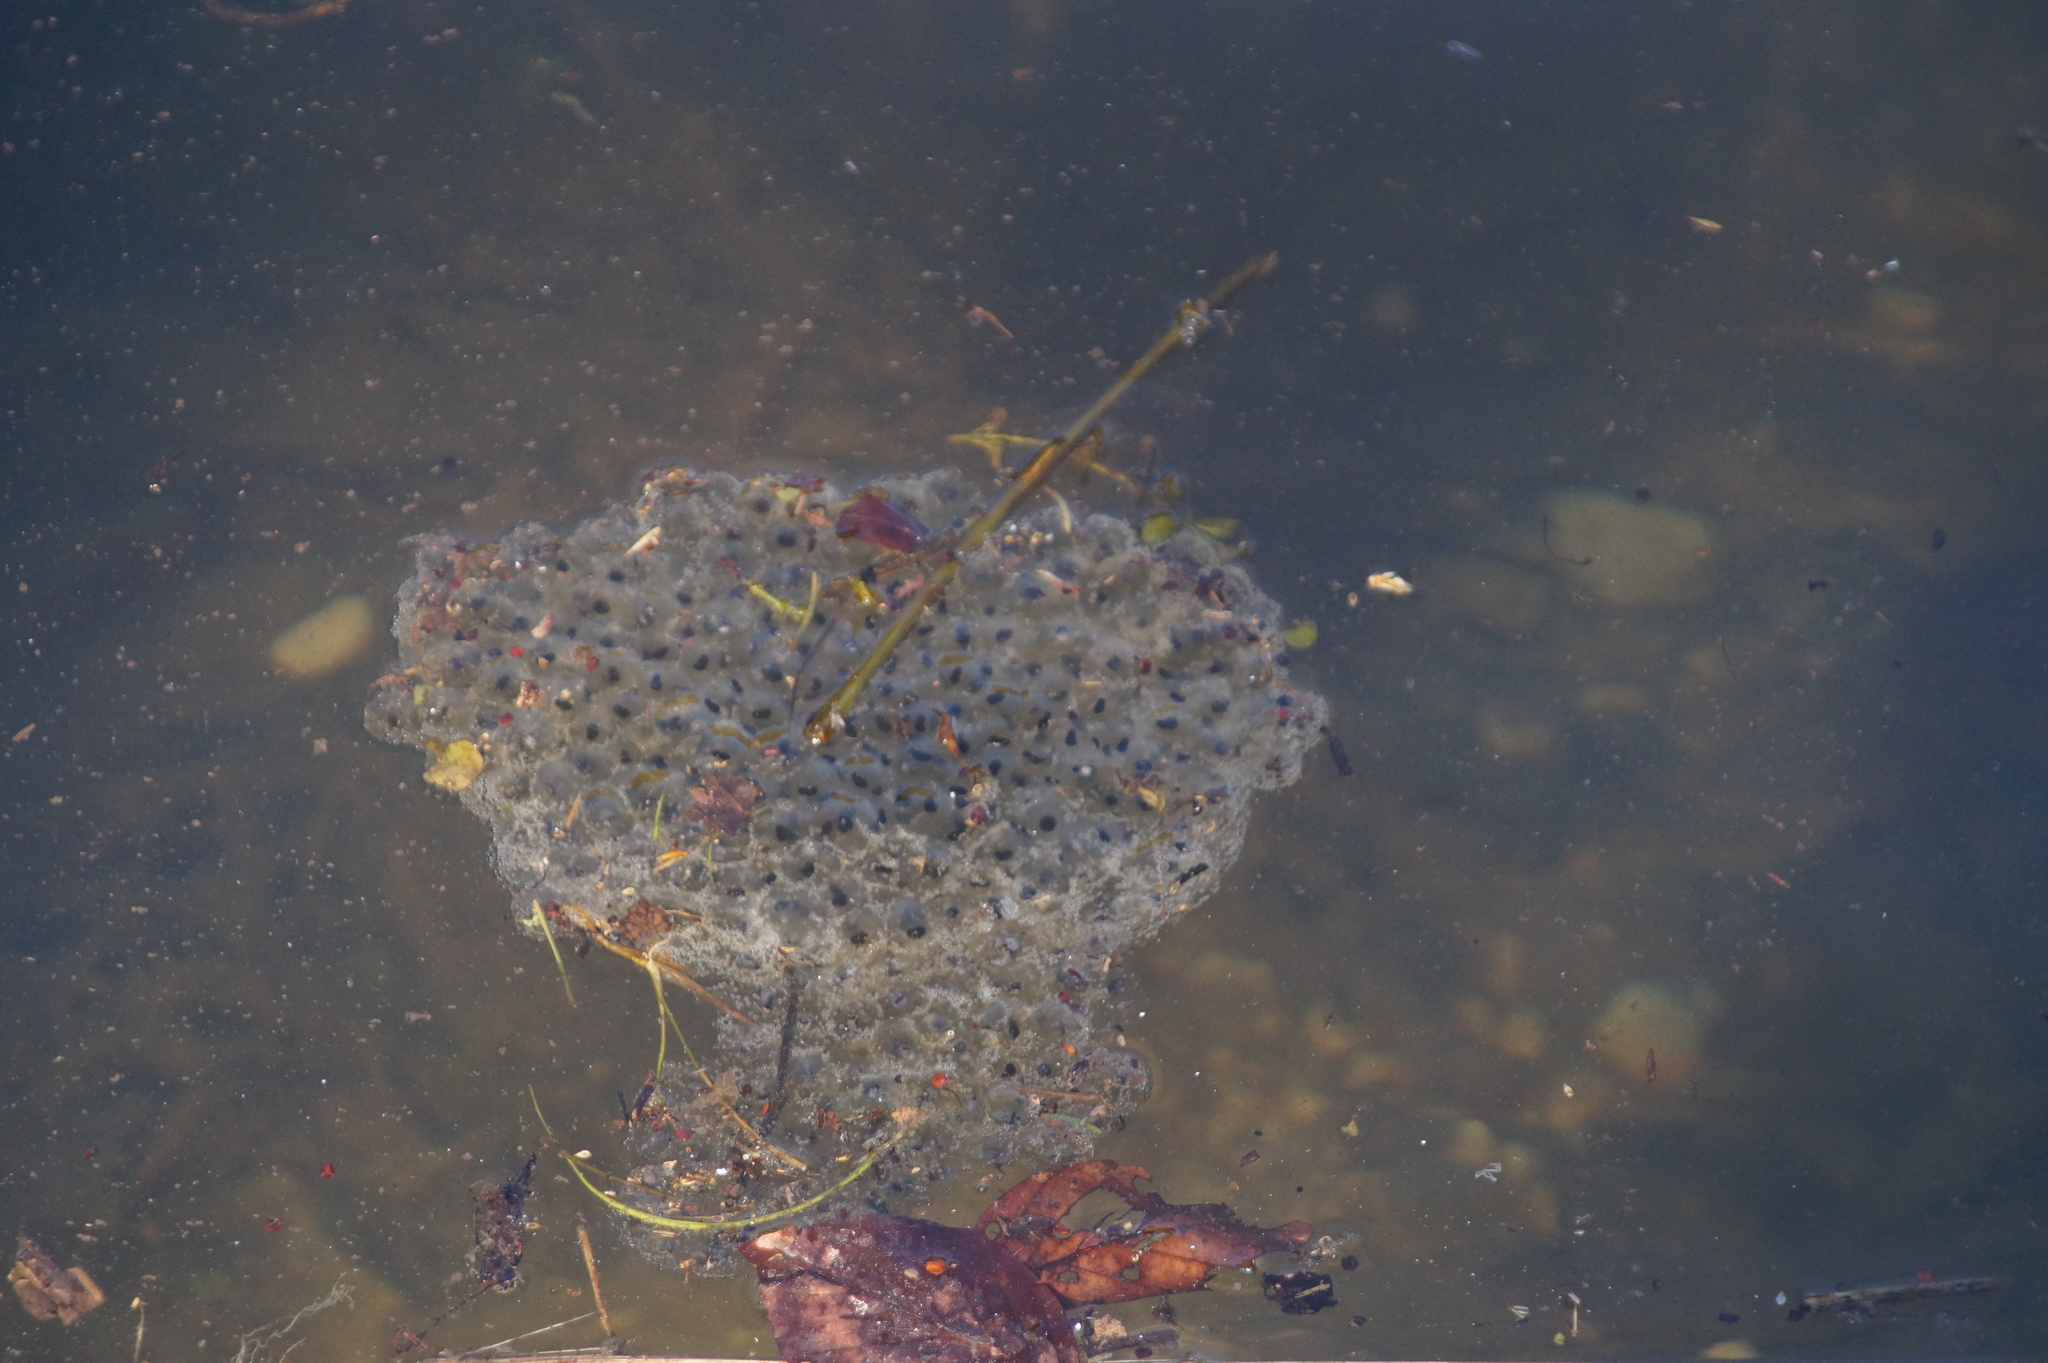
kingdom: Animalia
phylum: Chordata
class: Amphibia
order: Anura
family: Ranidae
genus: Rana
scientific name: Rana temporaria
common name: Common frog
